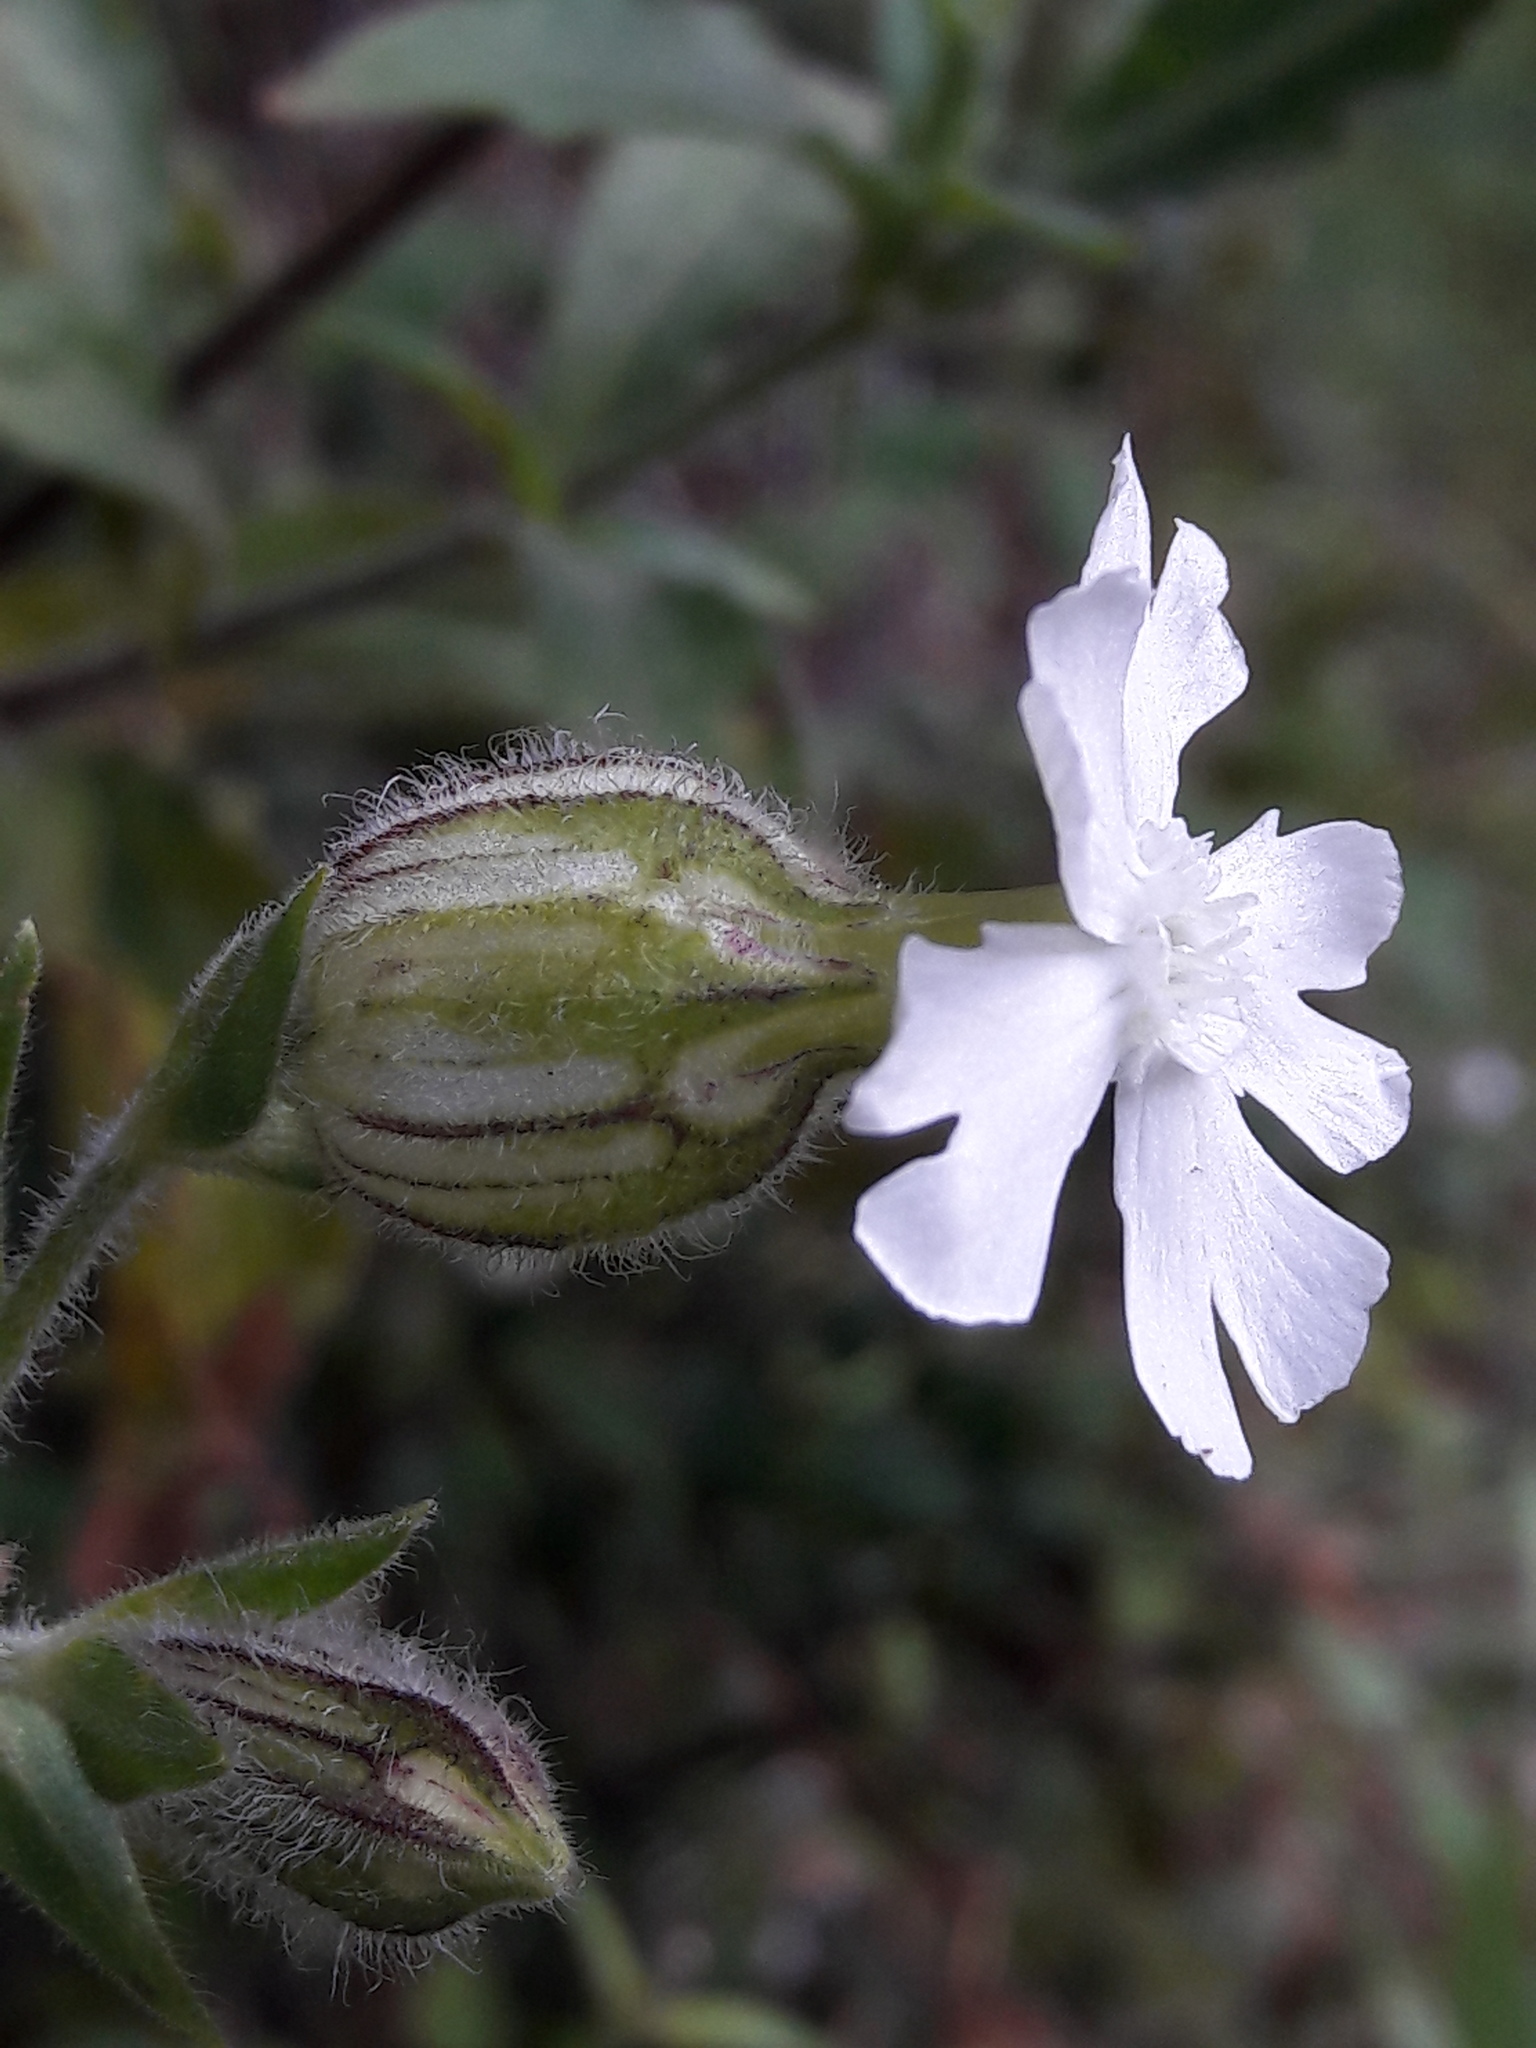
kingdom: Plantae
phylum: Tracheophyta
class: Magnoliopsida
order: Caryophyllales
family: Caryophyllaceae
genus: Silene
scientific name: Silene latifolia
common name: White campion
